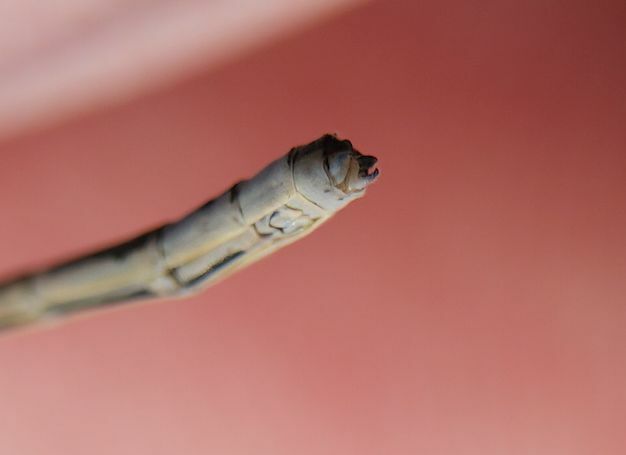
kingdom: Animalia
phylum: Arthropoda
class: Insecta
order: Odonata
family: Coenagrionidae
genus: Enallagma
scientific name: Enallagma hageni
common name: Hagen's bluet
